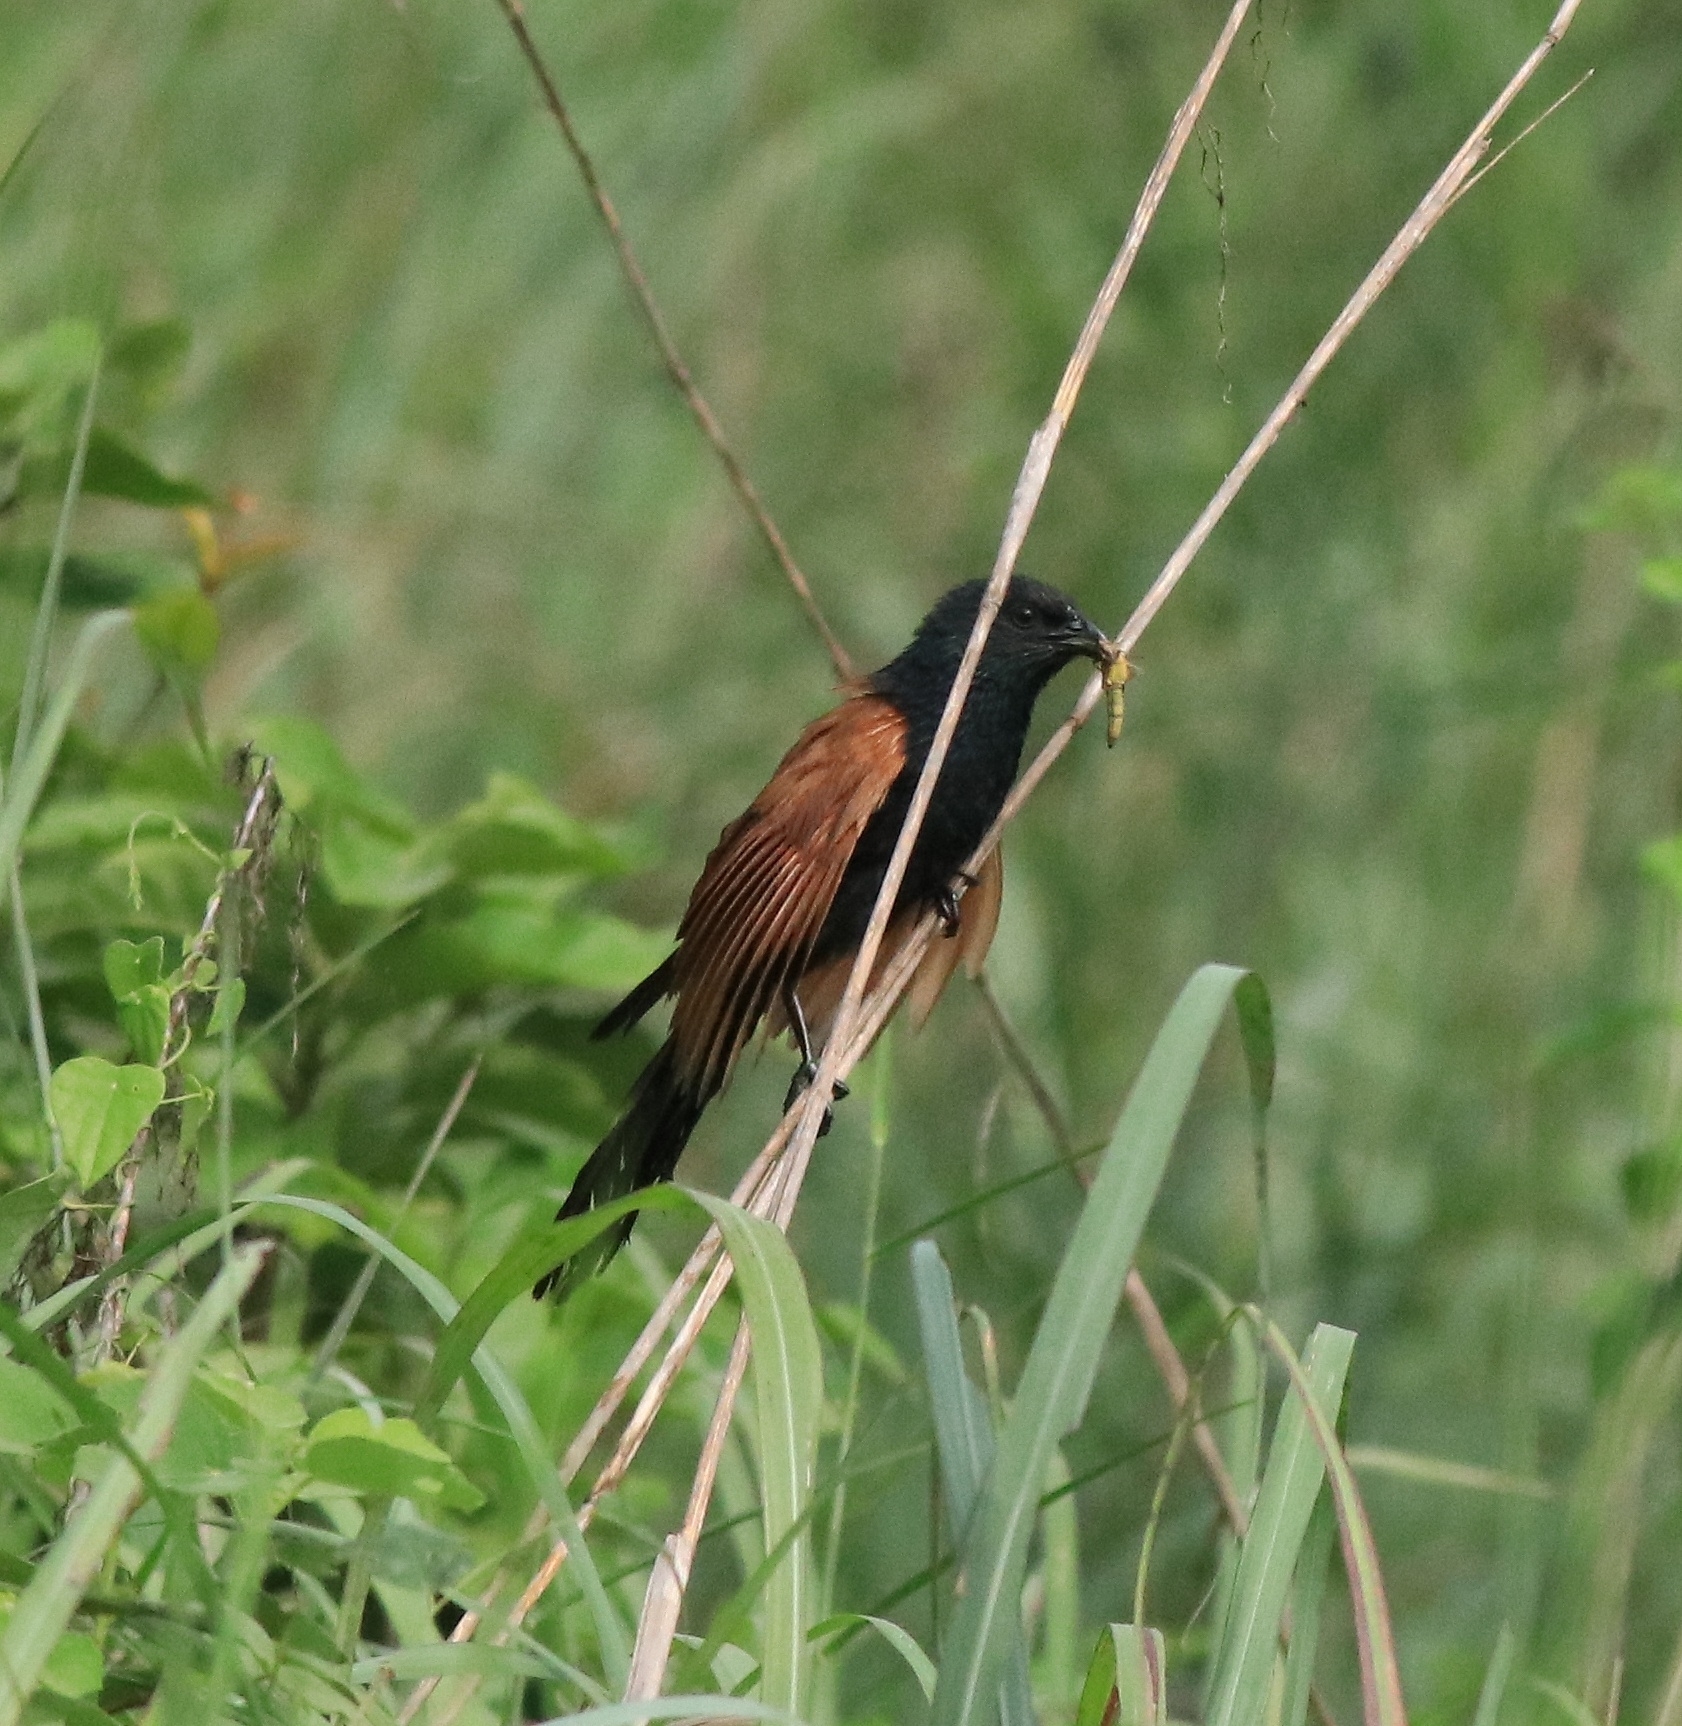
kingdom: Animalia
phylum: Chordata
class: Aves
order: Cuculiformes
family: Cuculidae
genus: Centropus
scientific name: Centropus bengalensis
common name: Lesser coucal
